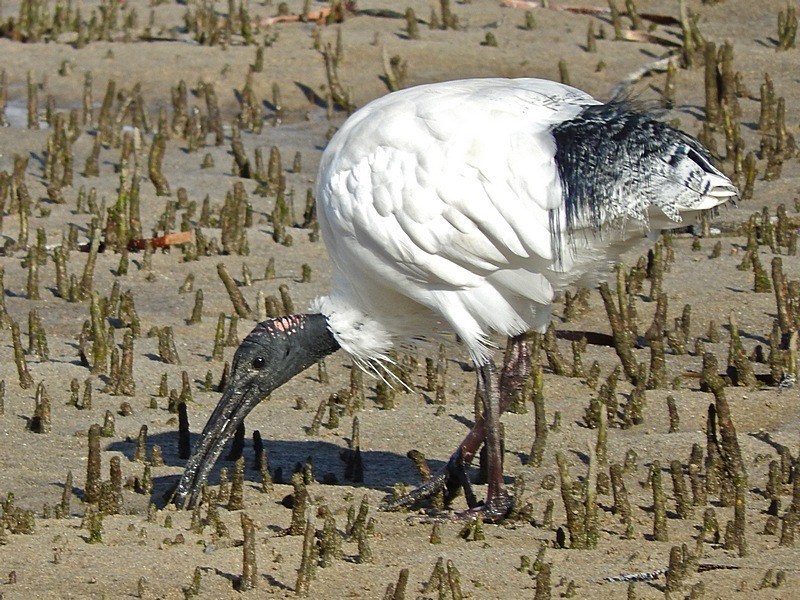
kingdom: Animalia
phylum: Chordata
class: Aves
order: Pelecaniformes
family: Threskiornithidae
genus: Threskiornis
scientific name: Threskiornis molucca
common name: Australian white ibis
